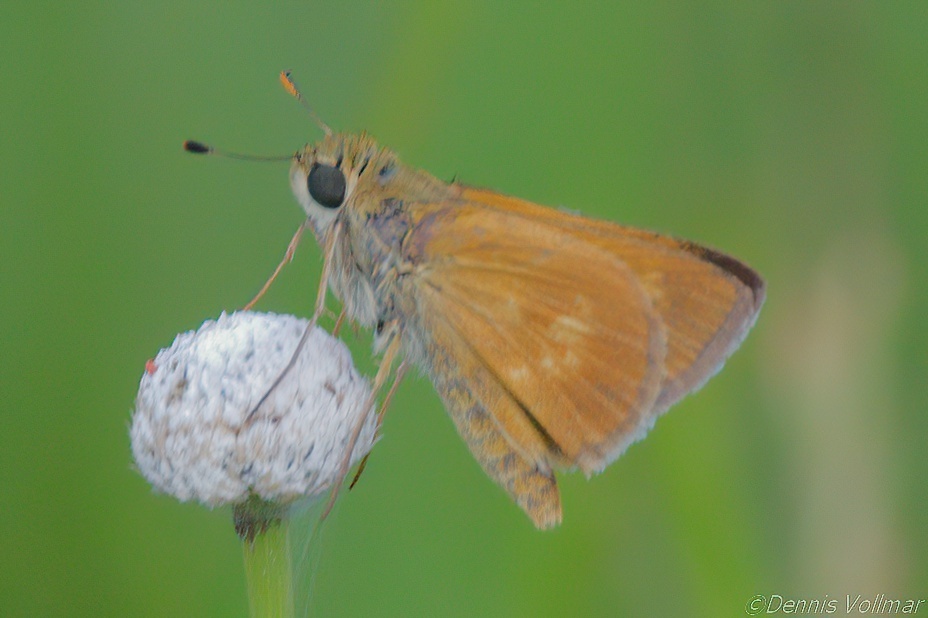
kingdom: Animalia
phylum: Arthropoda
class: Insecta
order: Lepidoptera
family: Hesperiidae
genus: Polites
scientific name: Polites otho
